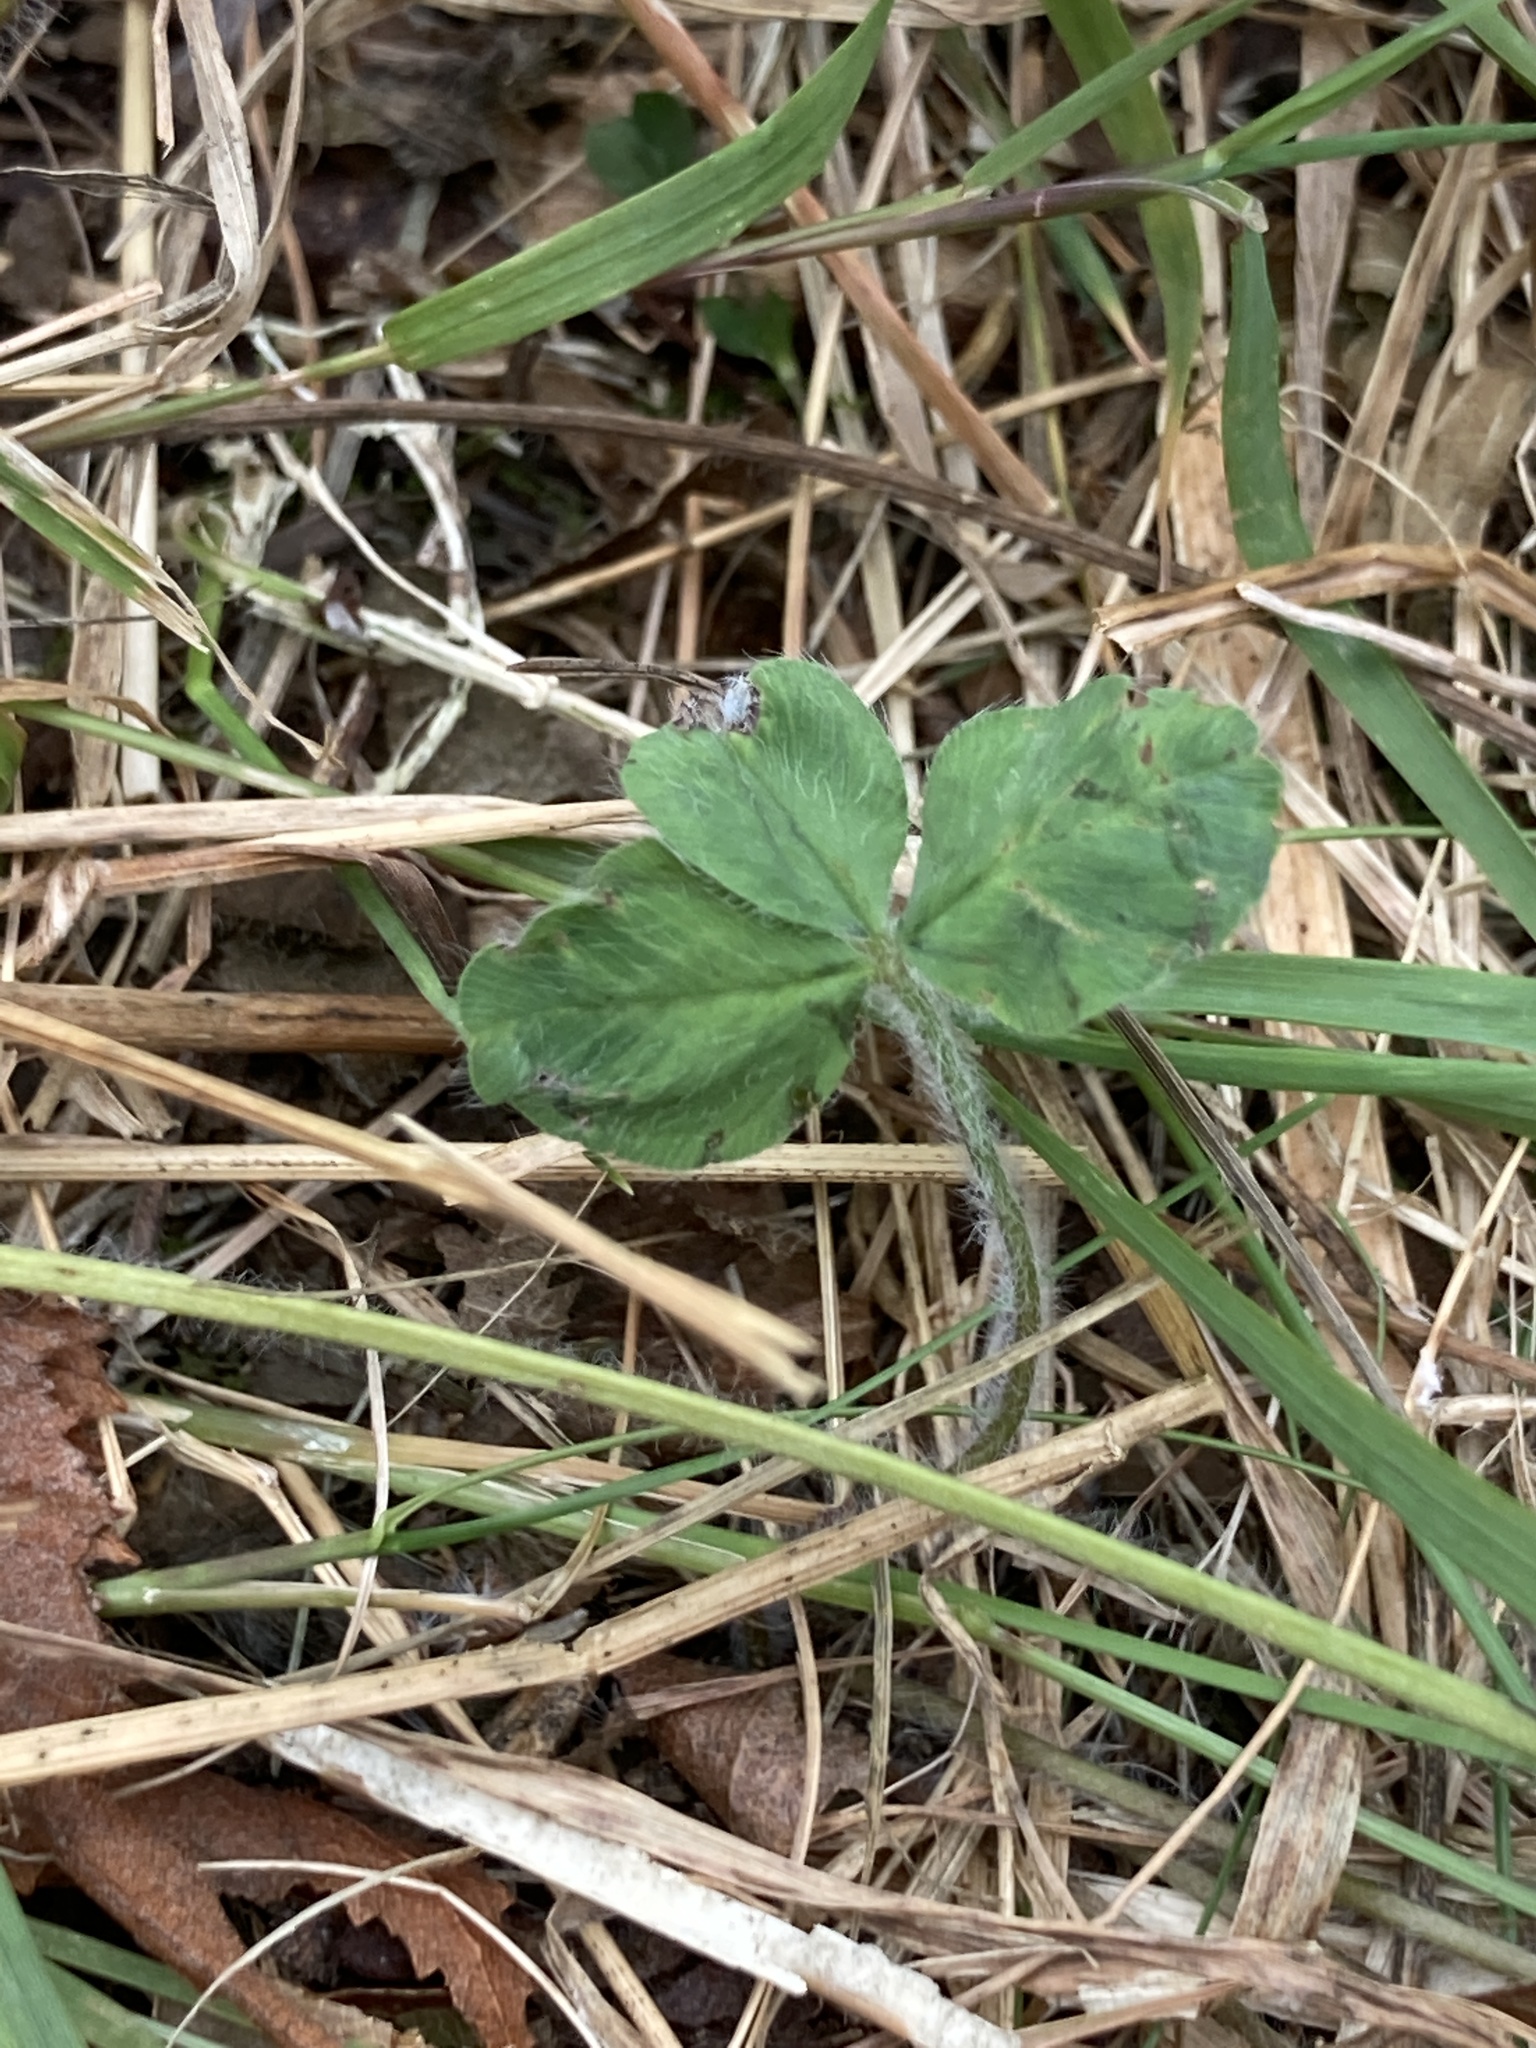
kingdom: Plantae
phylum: Tracheophyta
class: Magnoliopsida
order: Fabales
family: Fabaceae
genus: Trifolium
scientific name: Trifolium pratense
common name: Red clover
